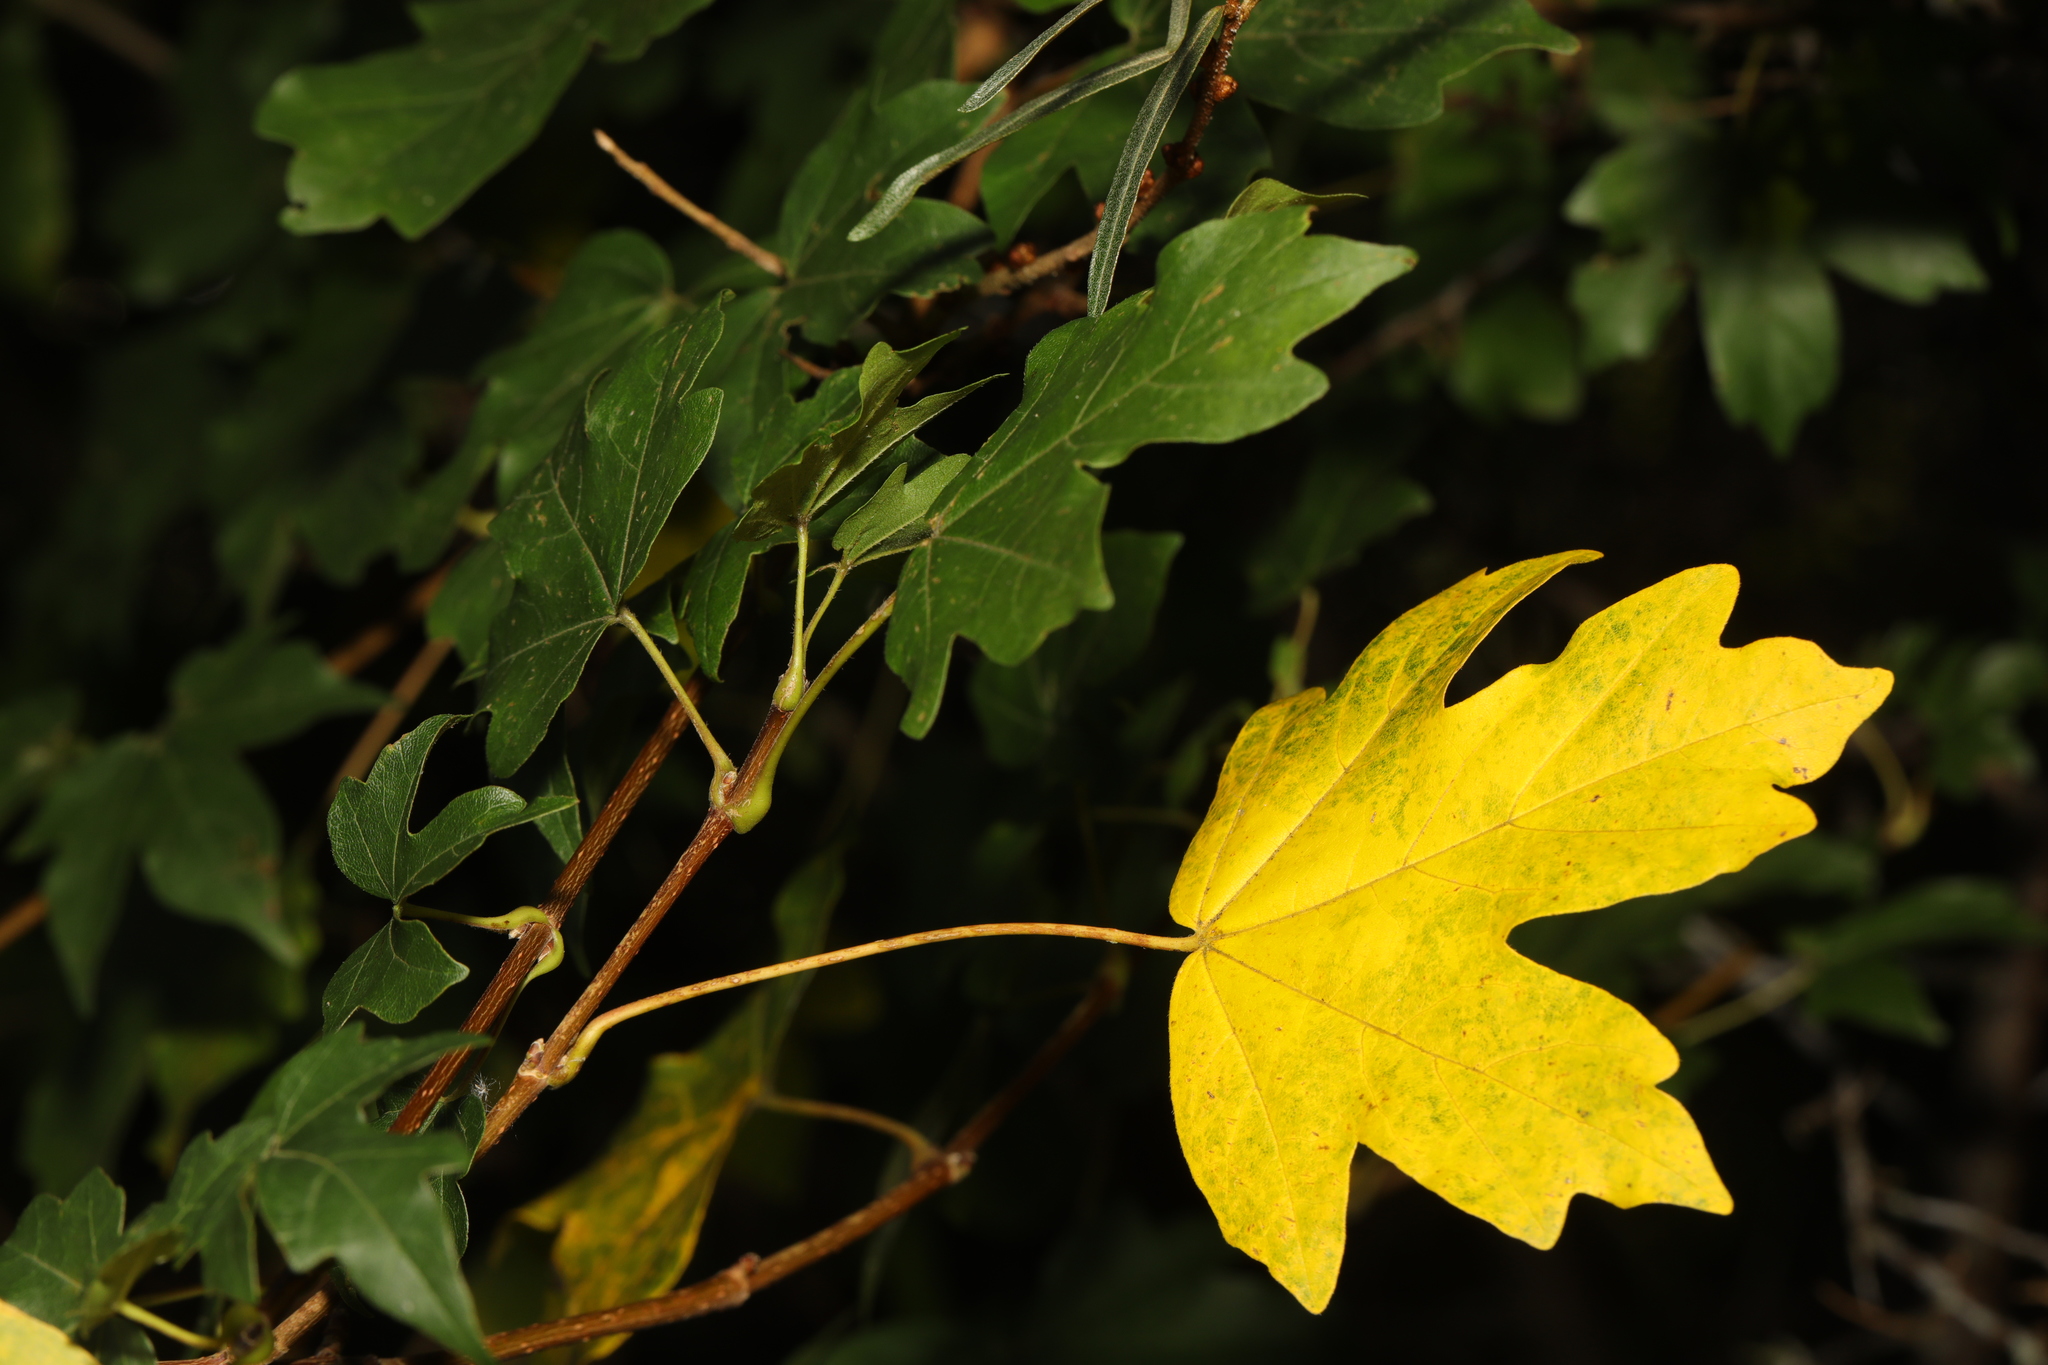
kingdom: Plantae
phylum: Tracheophyta
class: Magnoliopsida
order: Sapindales
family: Sapindaceae
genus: Acer
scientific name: Acer campestre
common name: Field maple
